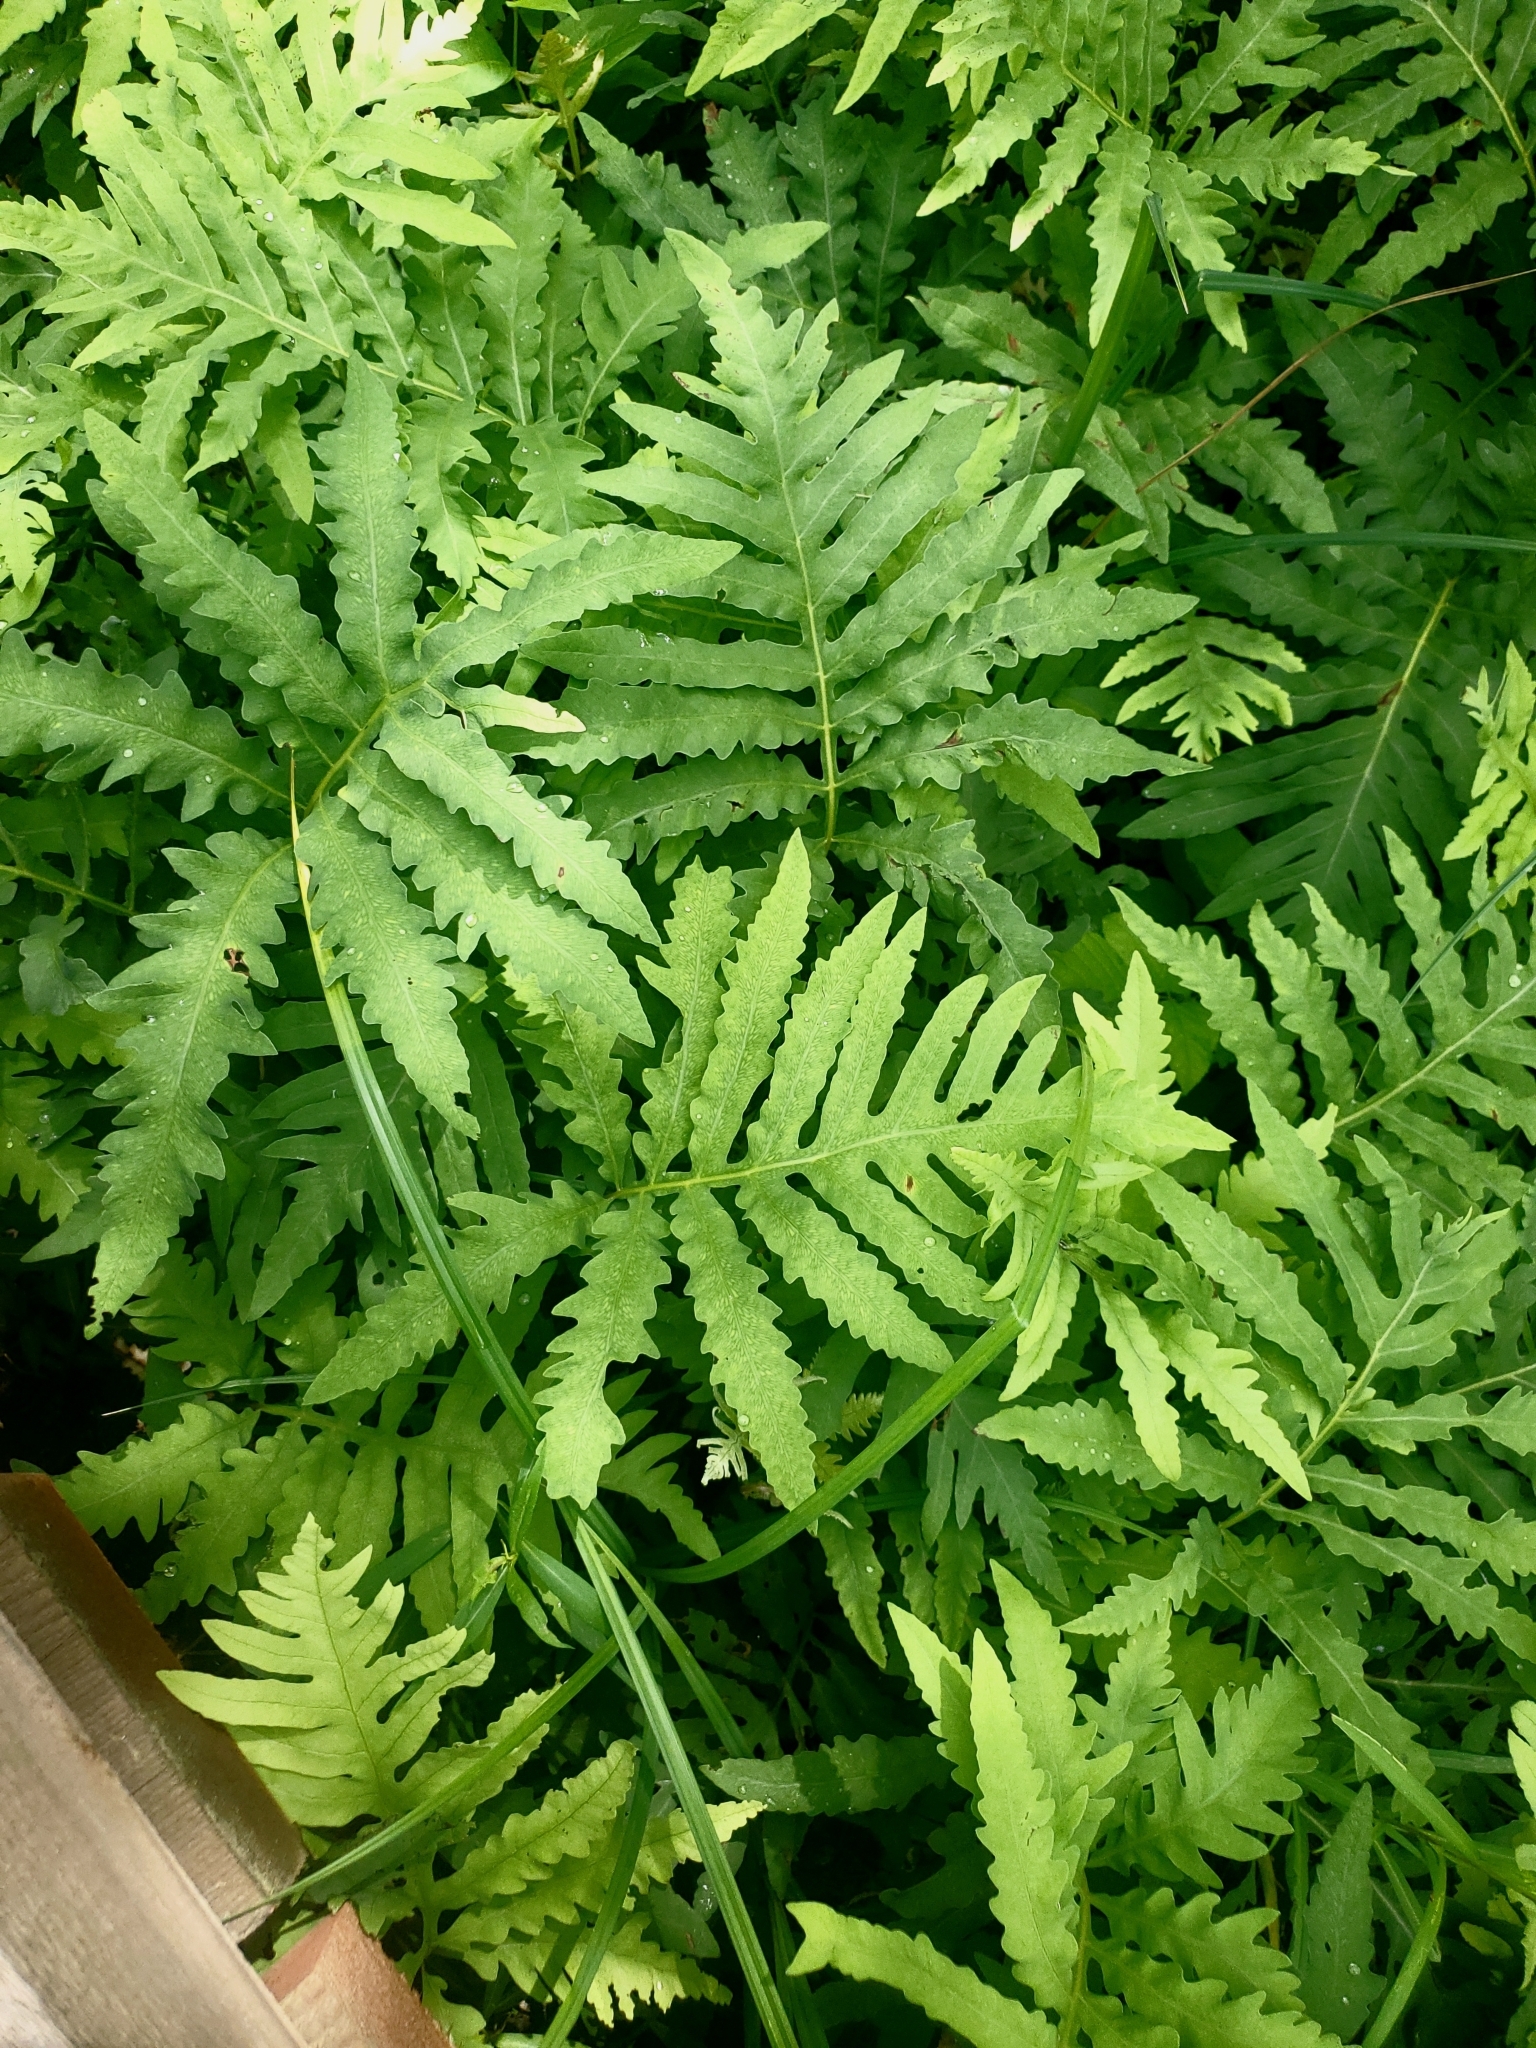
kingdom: Plantae
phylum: Tracheophyta
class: Polypodiopsida
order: Polypodiales
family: Onocleaceae
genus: Onoclea
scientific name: Onoclea sensibilis
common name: Sensitive fern
